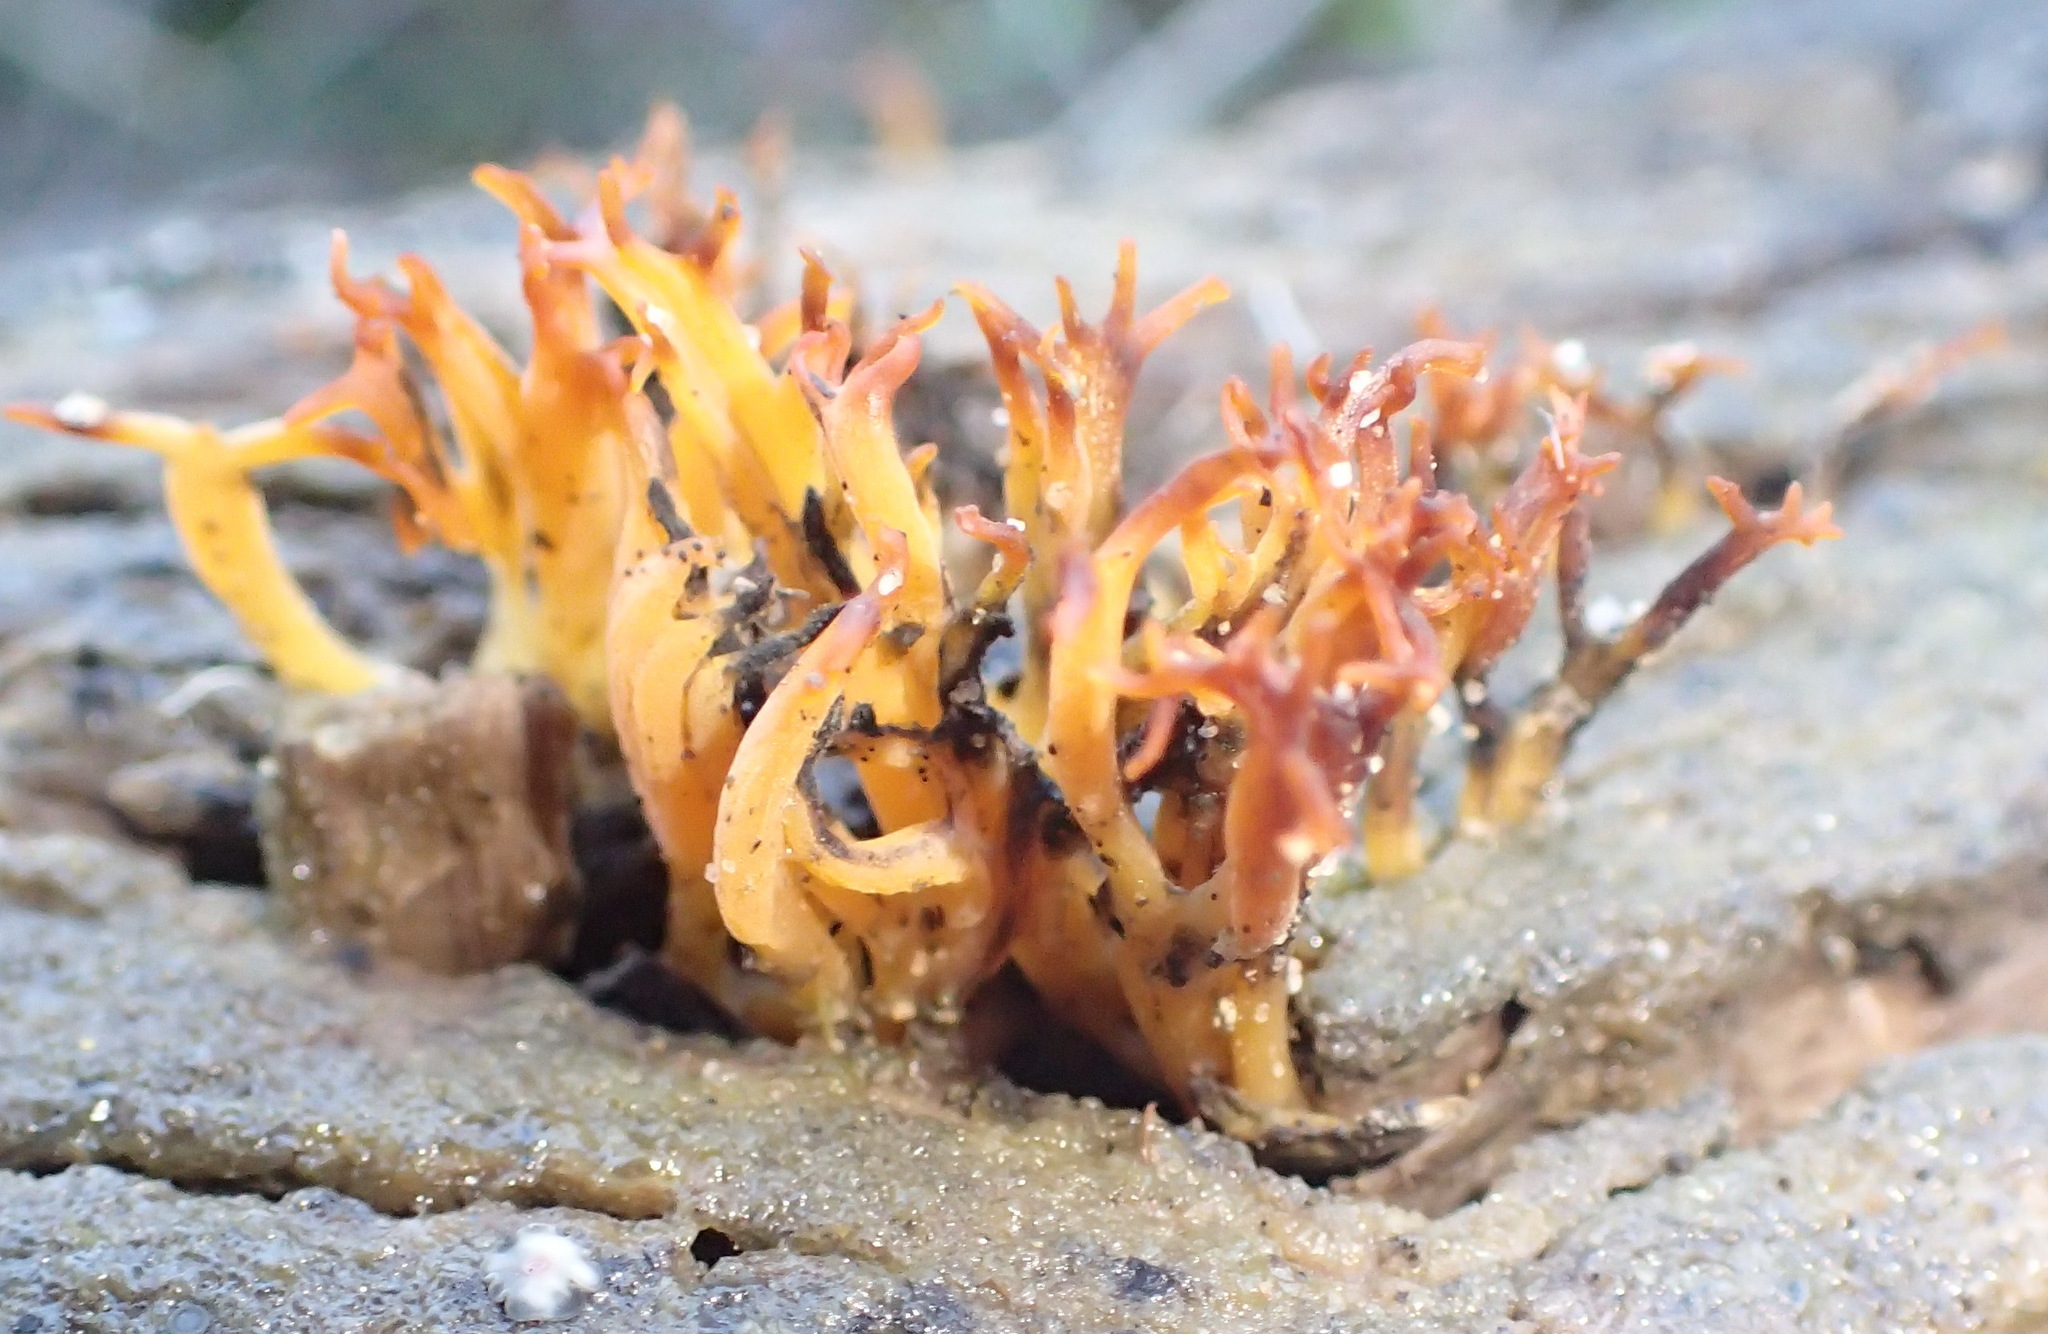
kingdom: Fungi
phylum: Basidiomycota
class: Dacrymycetes
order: Dacrymycetales
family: Dacrymycetaceae
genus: Calocera
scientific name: Calocera cornea
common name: Small stagshorn
